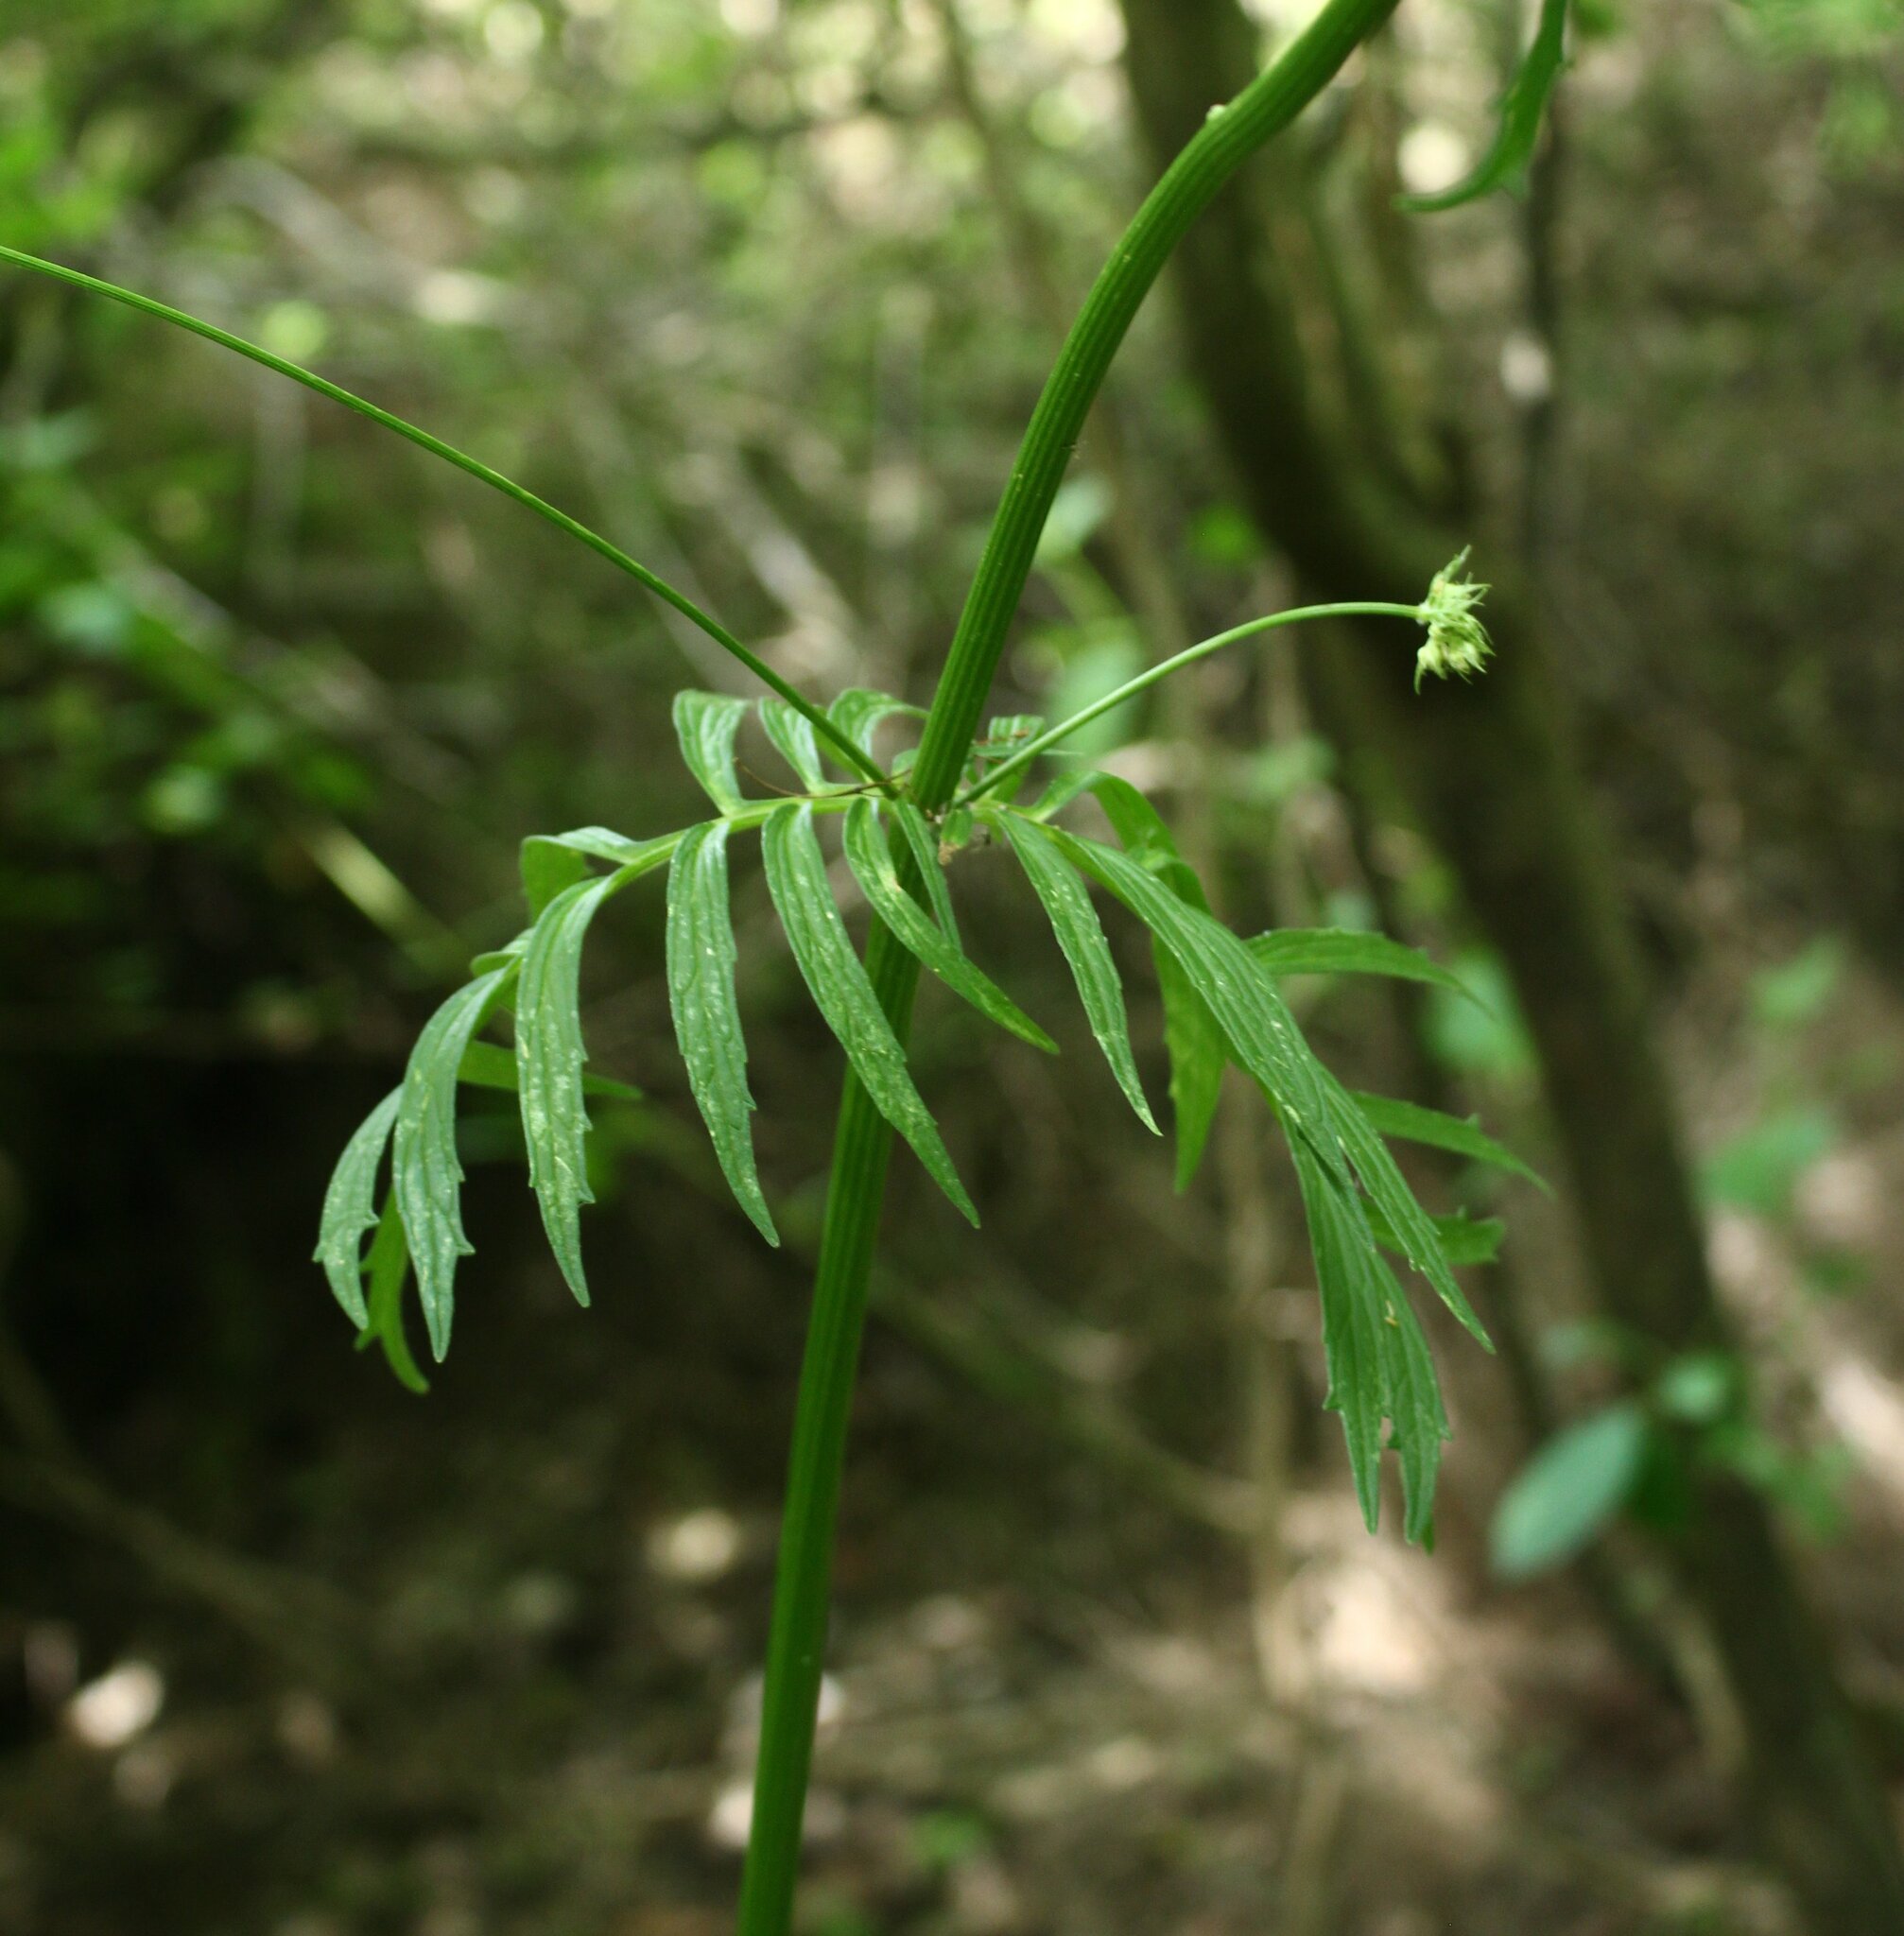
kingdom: Plantae
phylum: Tracheophyta
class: Magnoliopsida
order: Dipsacales
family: Caprifoliaceae
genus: Valeriana
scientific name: Valeriana officinalis
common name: Common valerian
